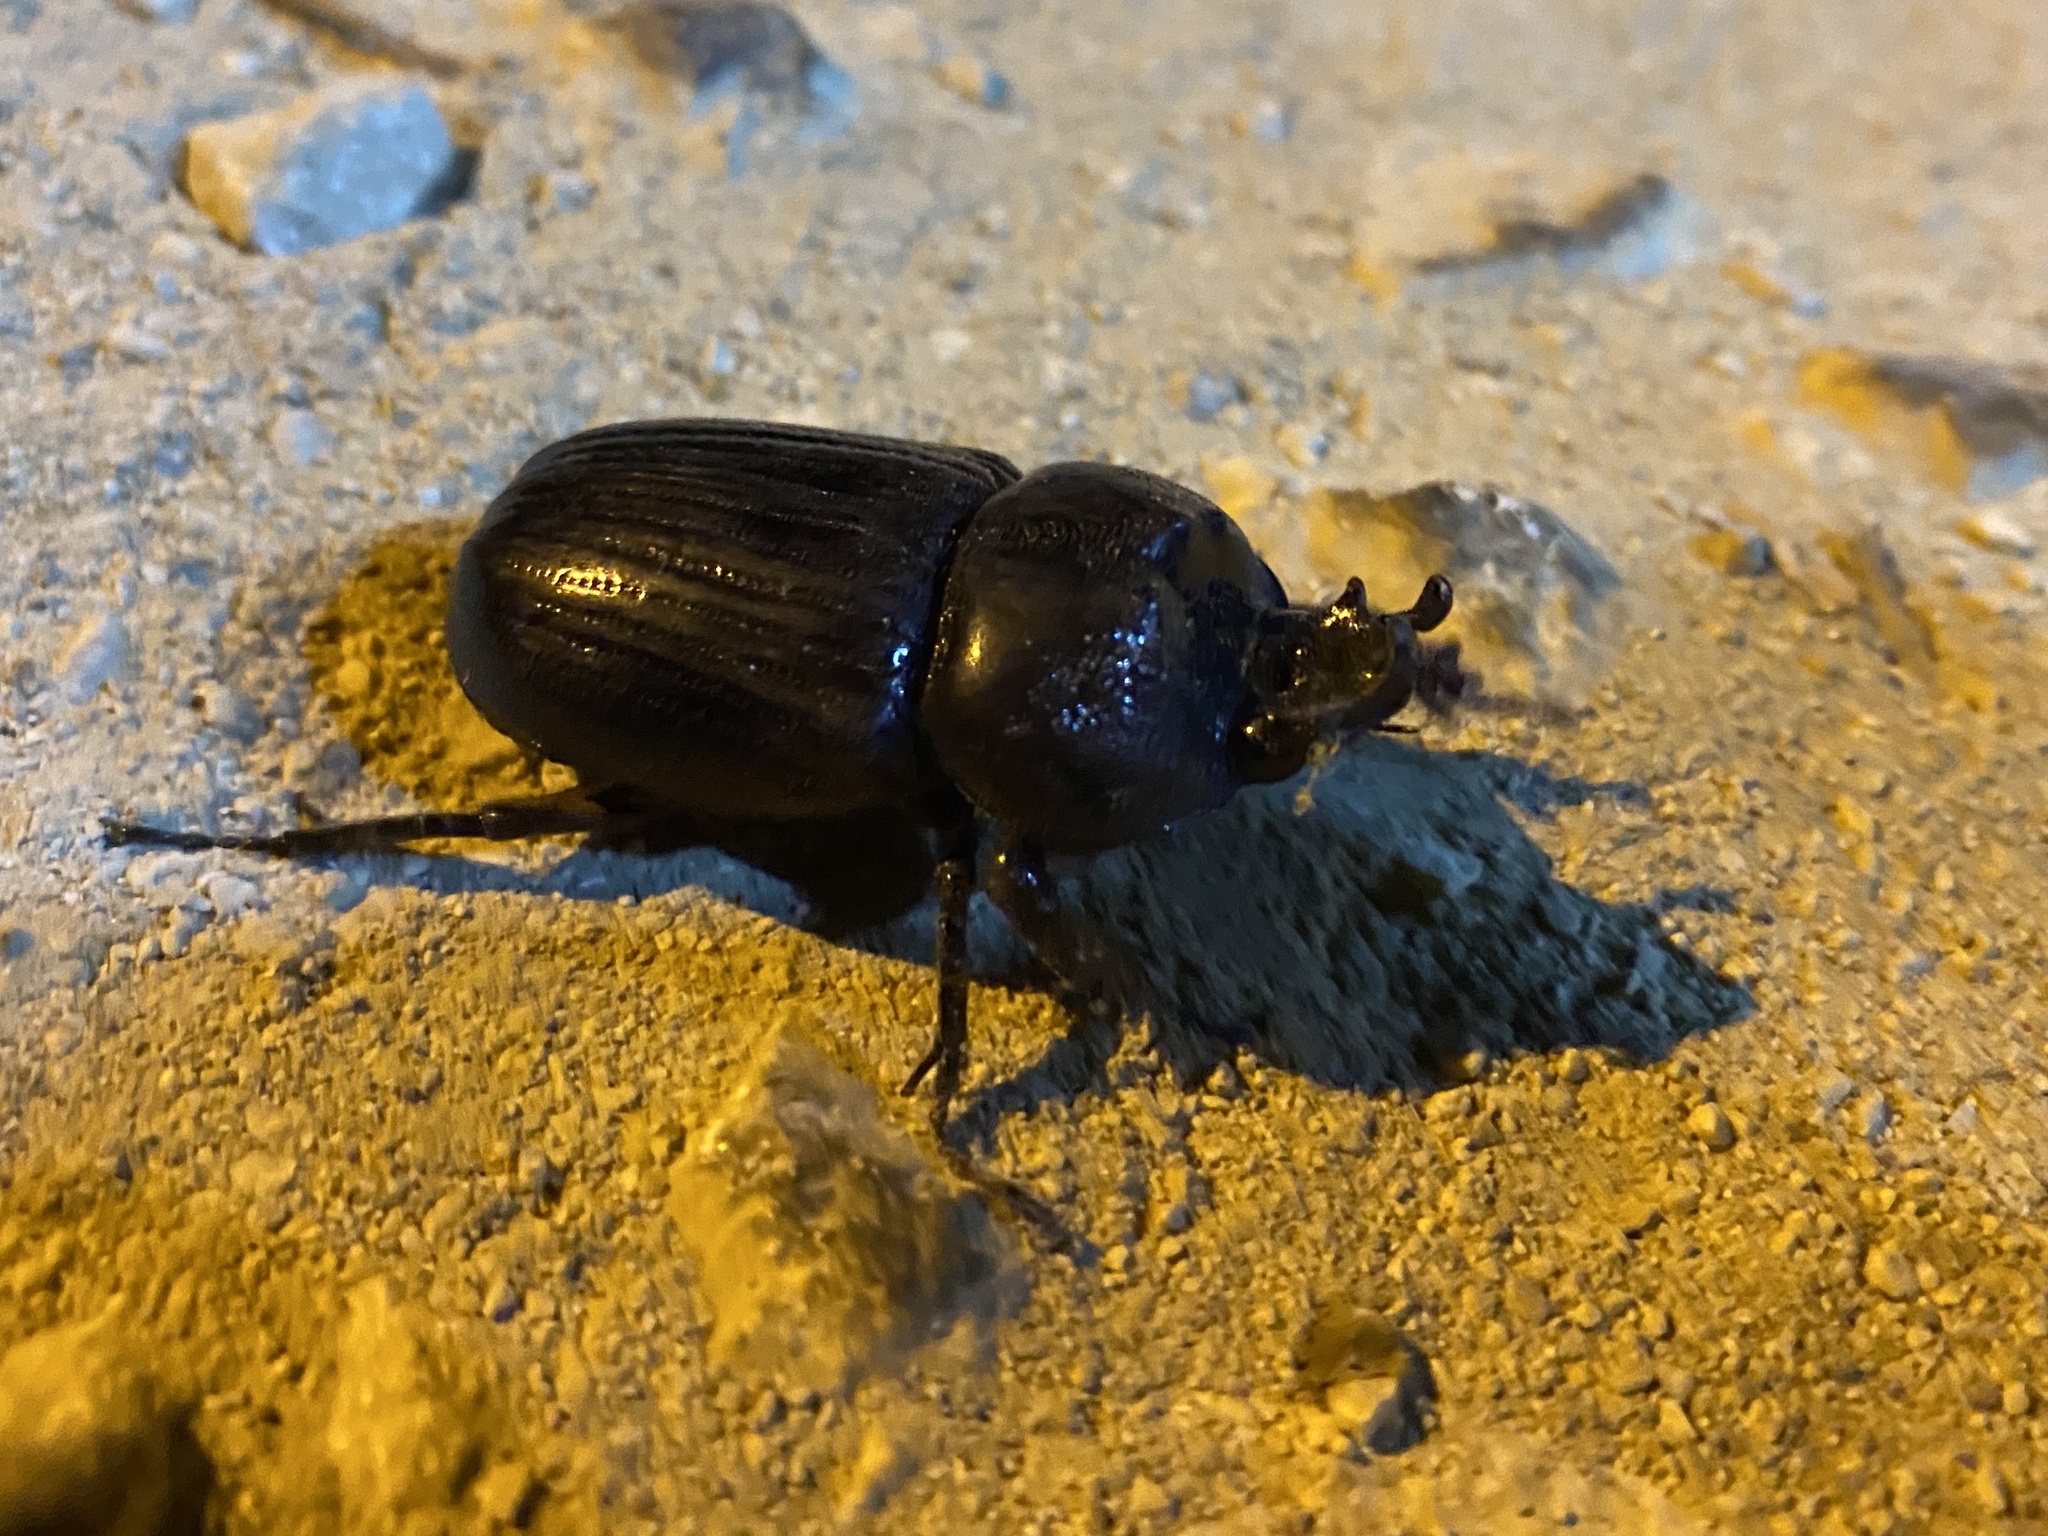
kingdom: Animalia
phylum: Arthropoda
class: Insecta
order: Coleoptera
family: Scarabaeidae
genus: Phileurus
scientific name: Phileurus truncatus
